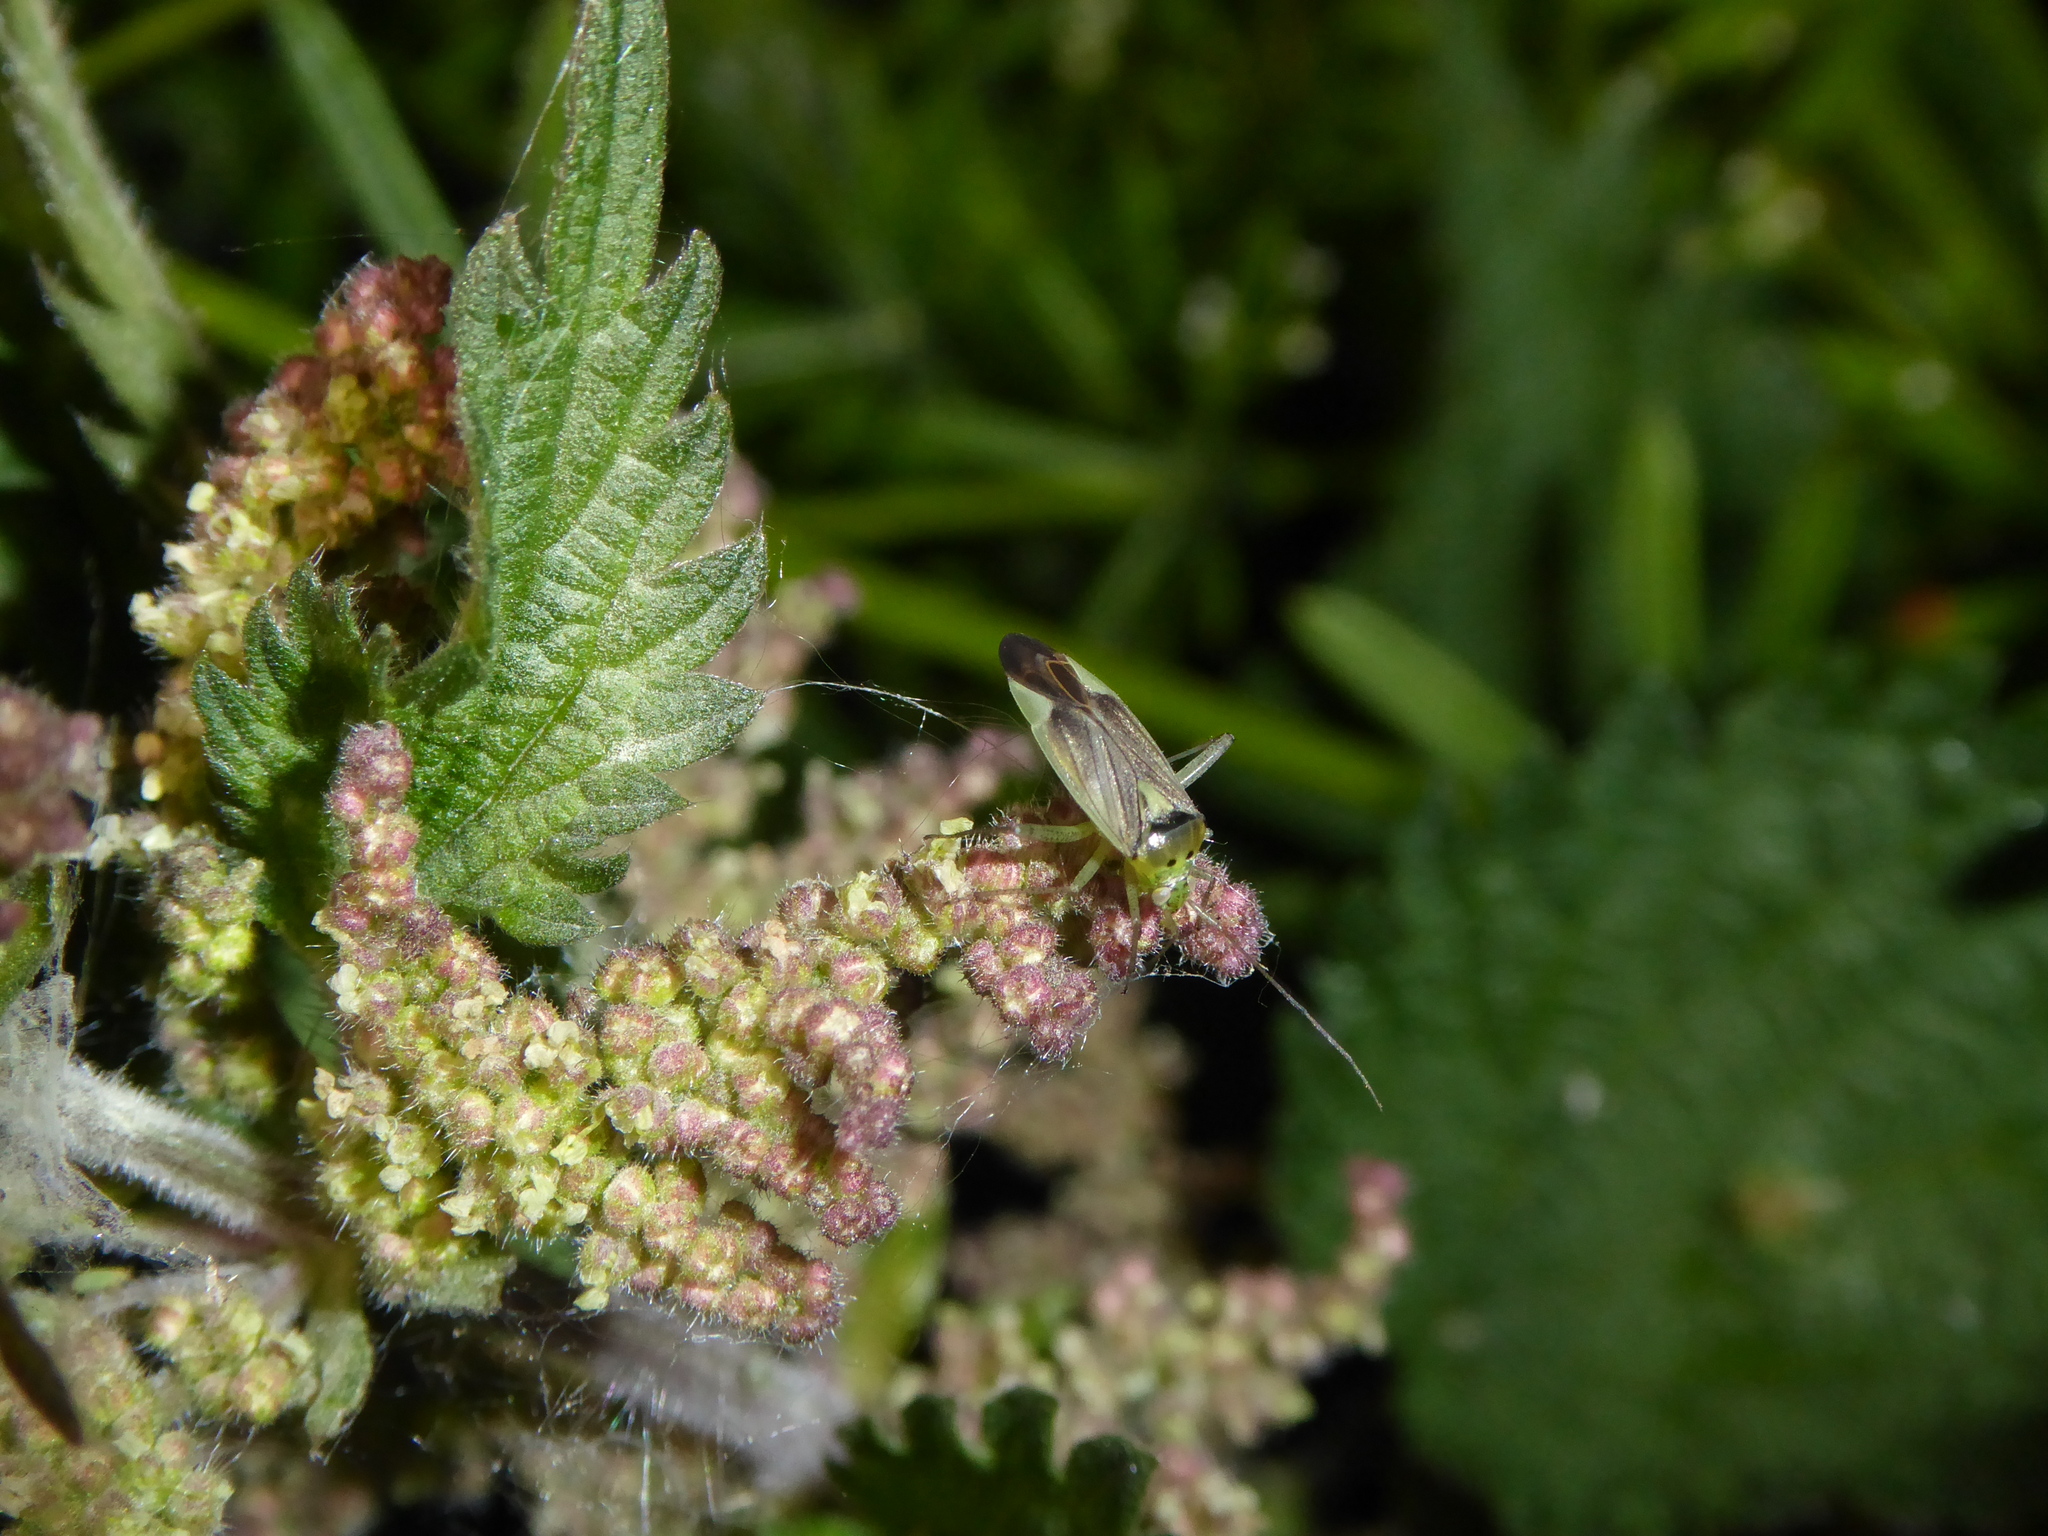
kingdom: Animalia
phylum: Arthropoda
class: Insecta
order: Hemiptera
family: Miridae
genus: Closterotomus
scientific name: Closterotomus trivialis
